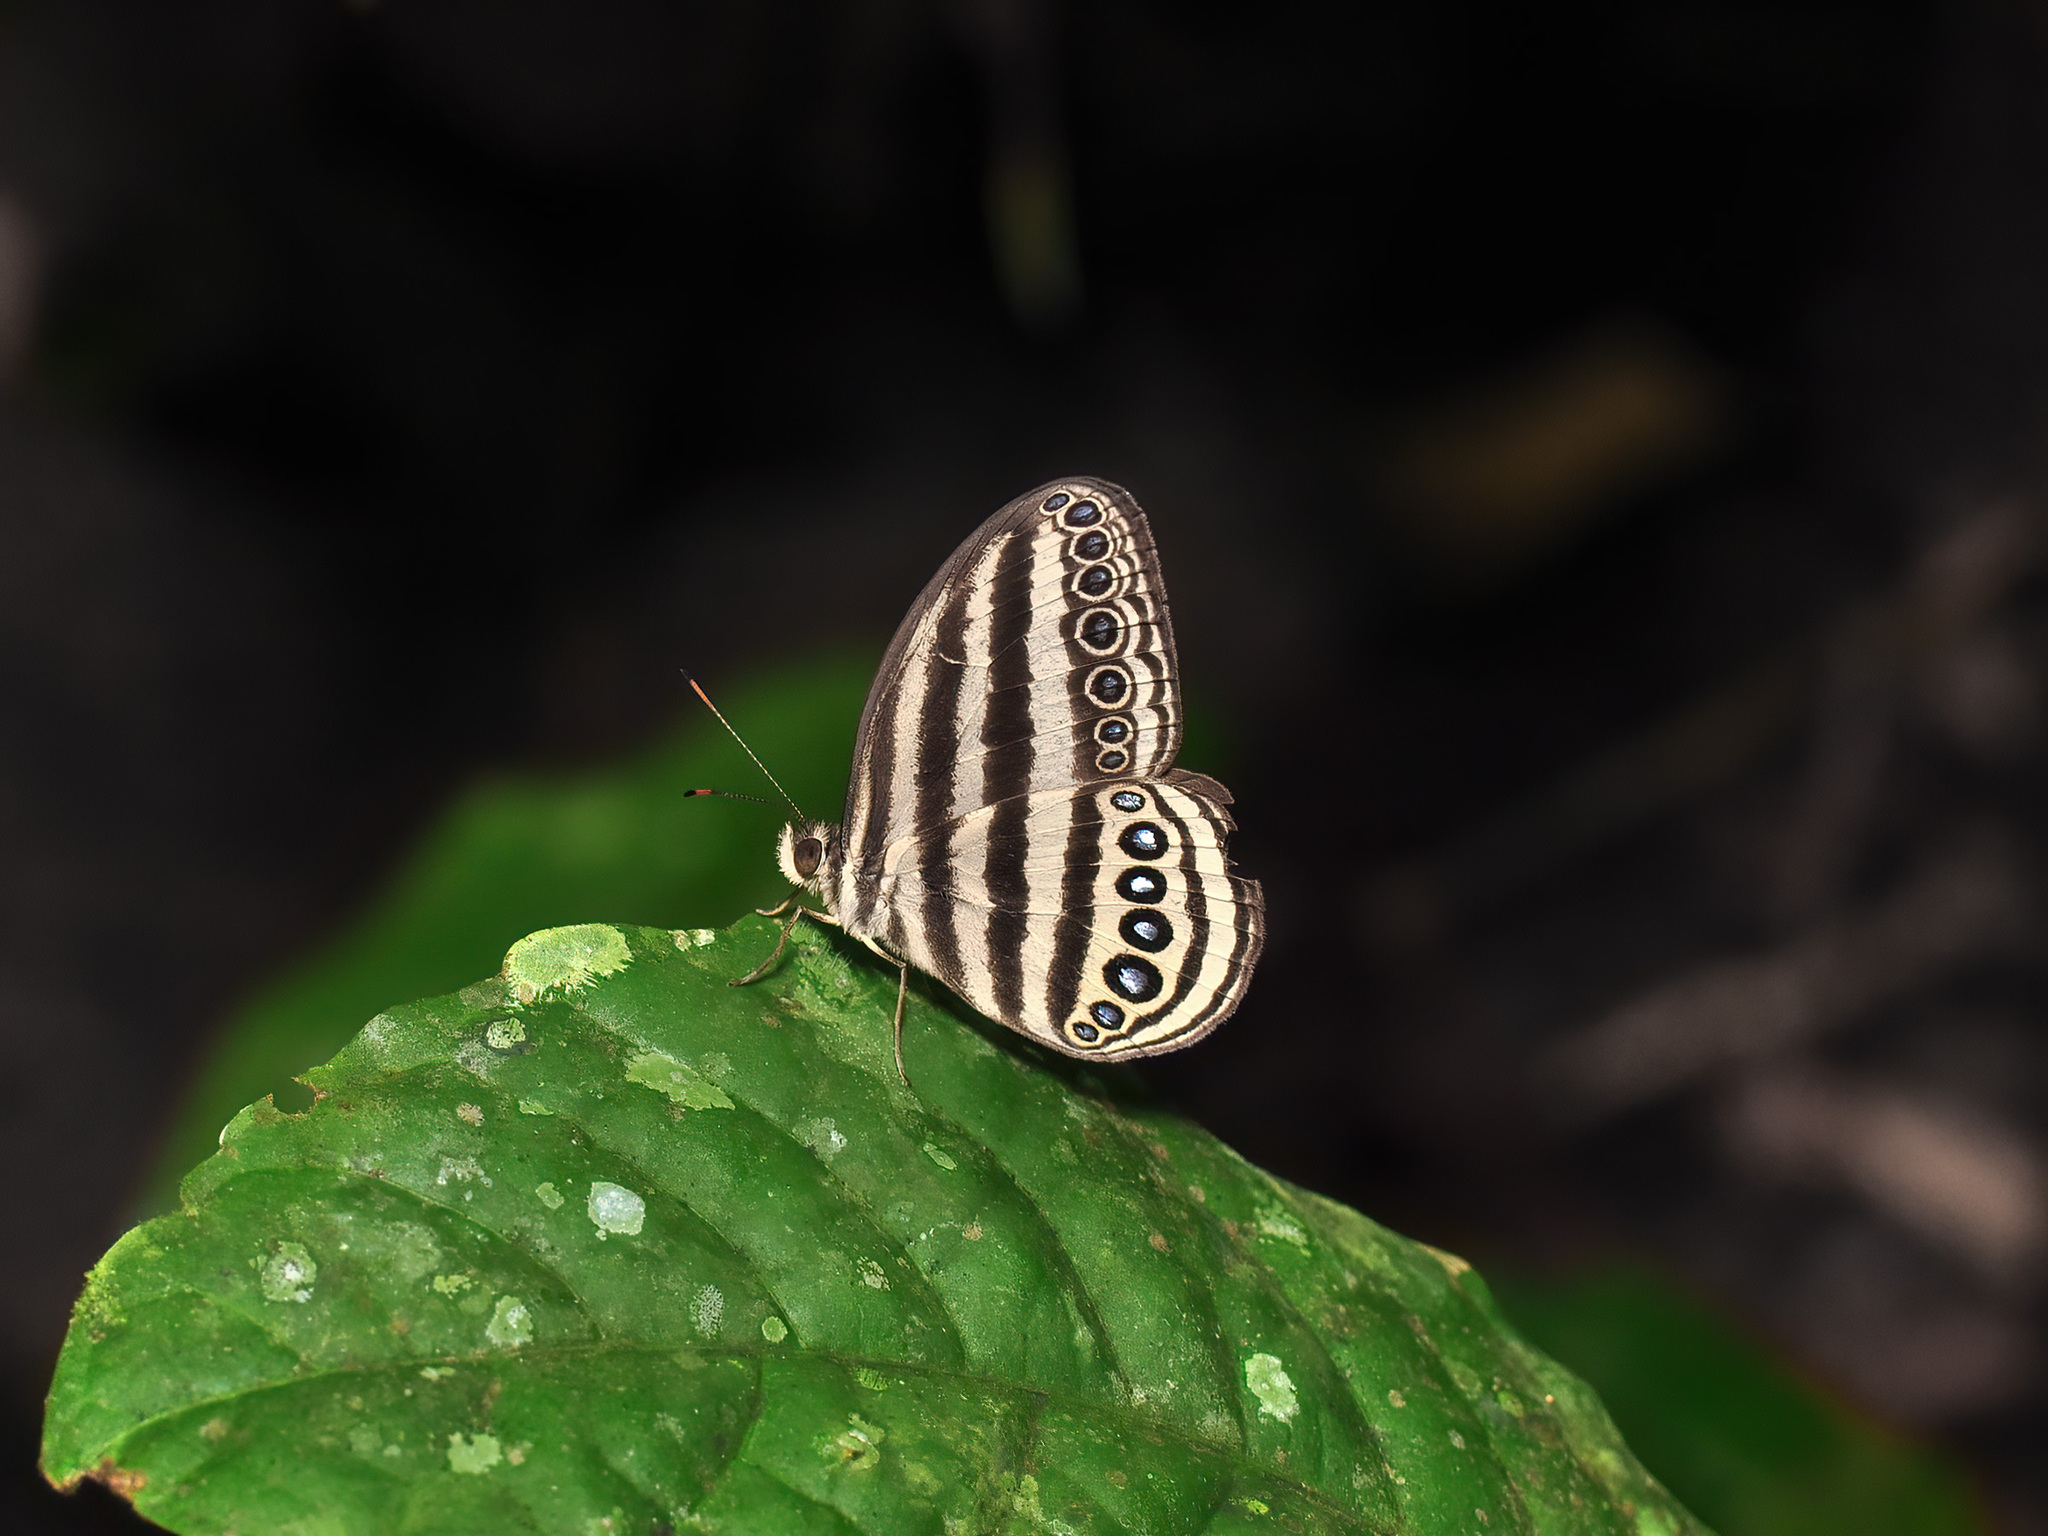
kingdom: Animalia
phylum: Arthropoda
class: Insecta
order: Lepidoptera
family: Nymphalidae
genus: Ragadia
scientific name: Ragadia makuta
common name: Striped ringlet
